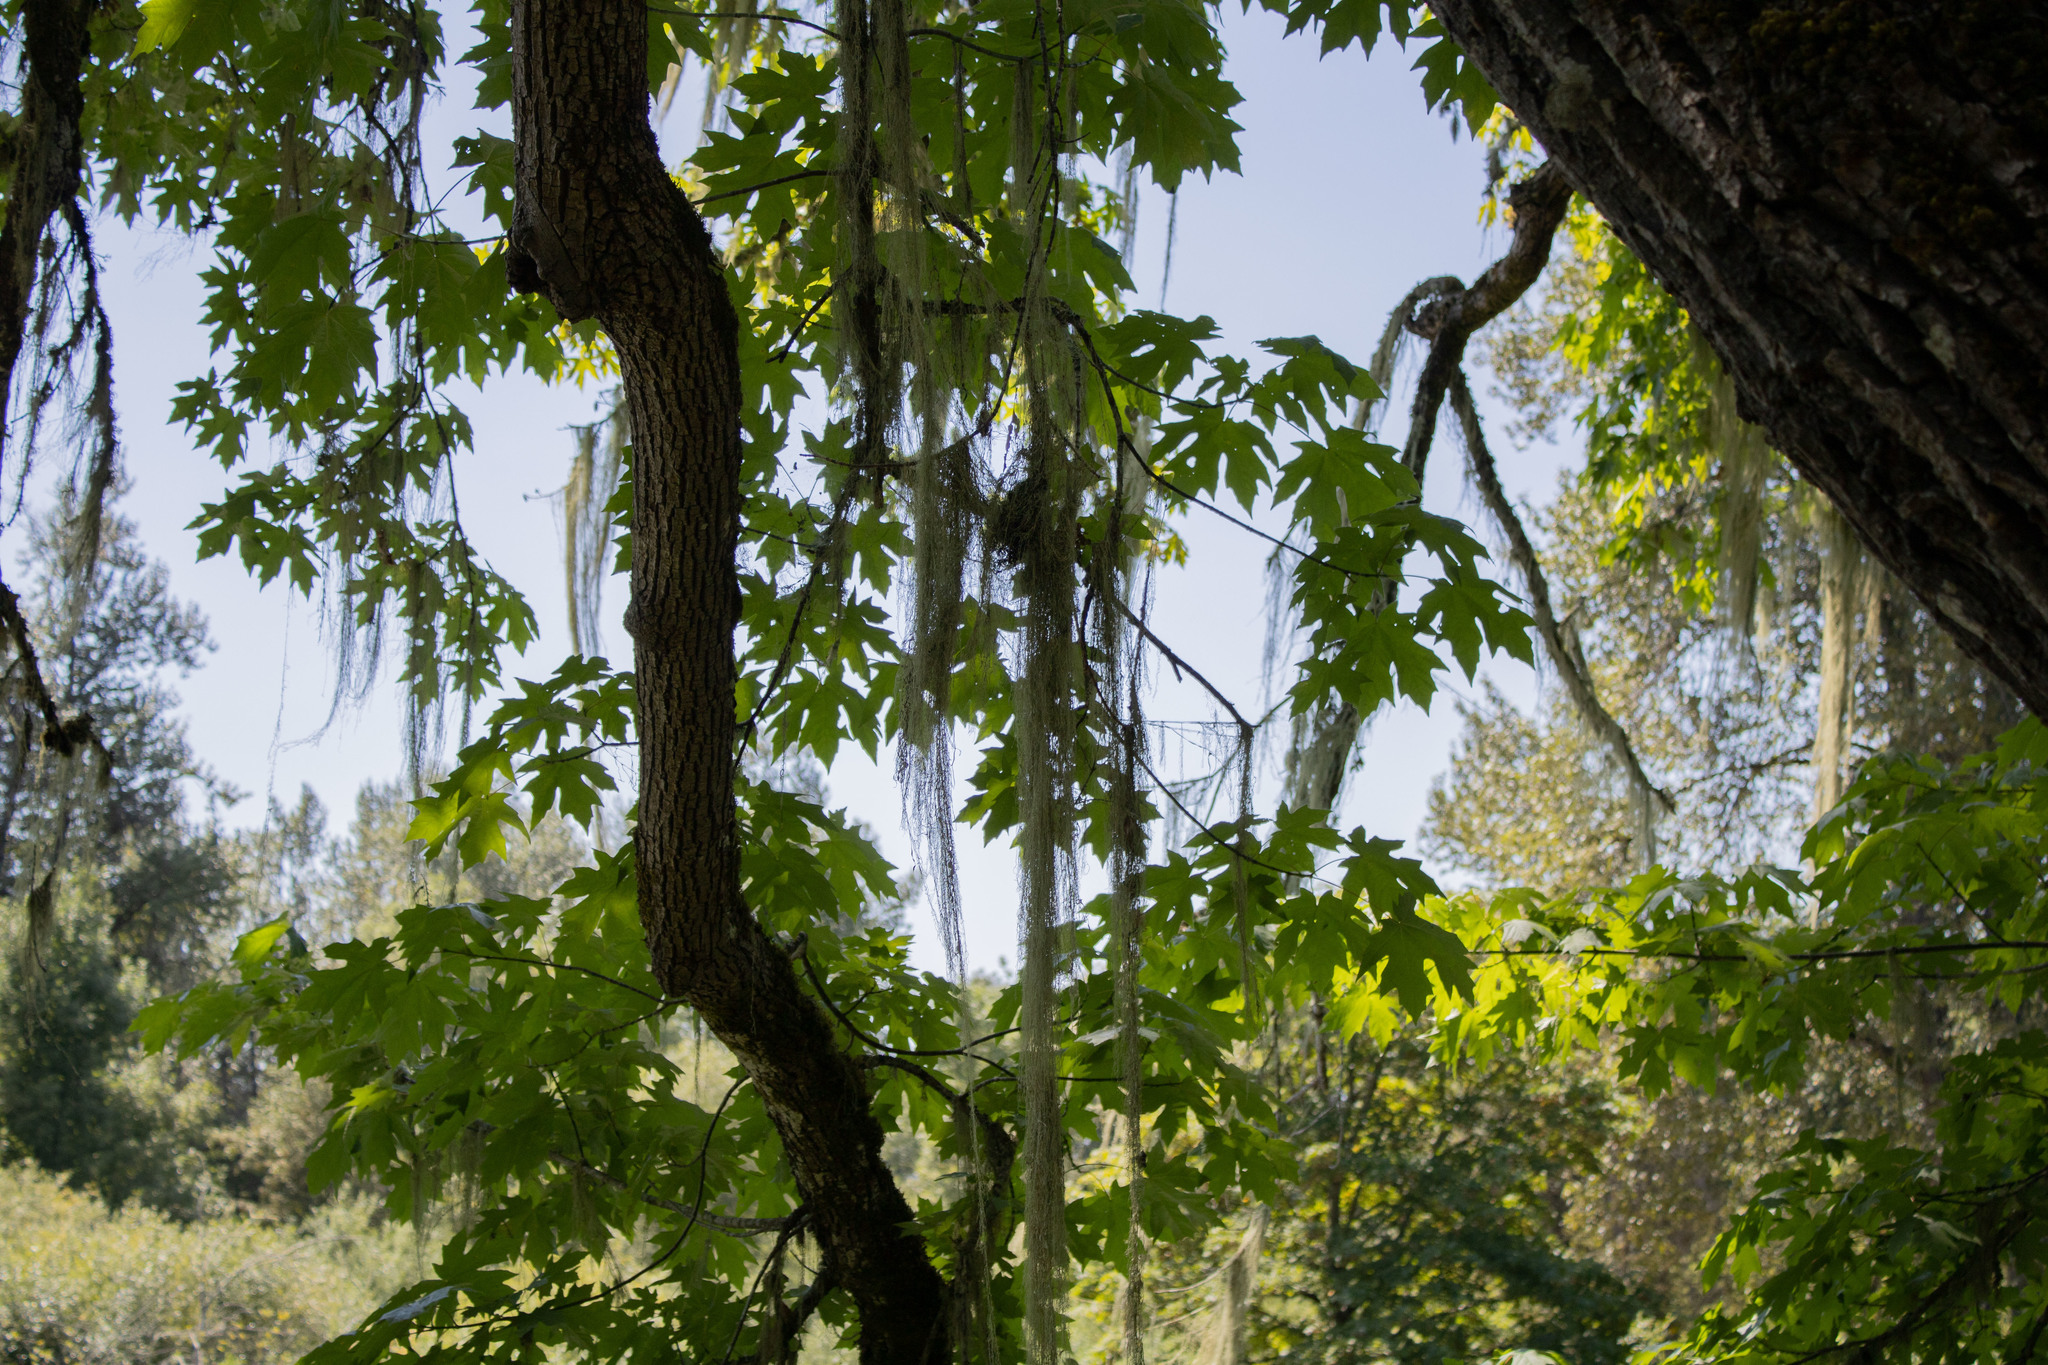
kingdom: Fungi
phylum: Ascomycota
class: Lecanoromycetes
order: Lecanorales
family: Ramalinaceae
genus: Ramalina
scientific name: Ramalina menziesii
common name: Lace lichen
